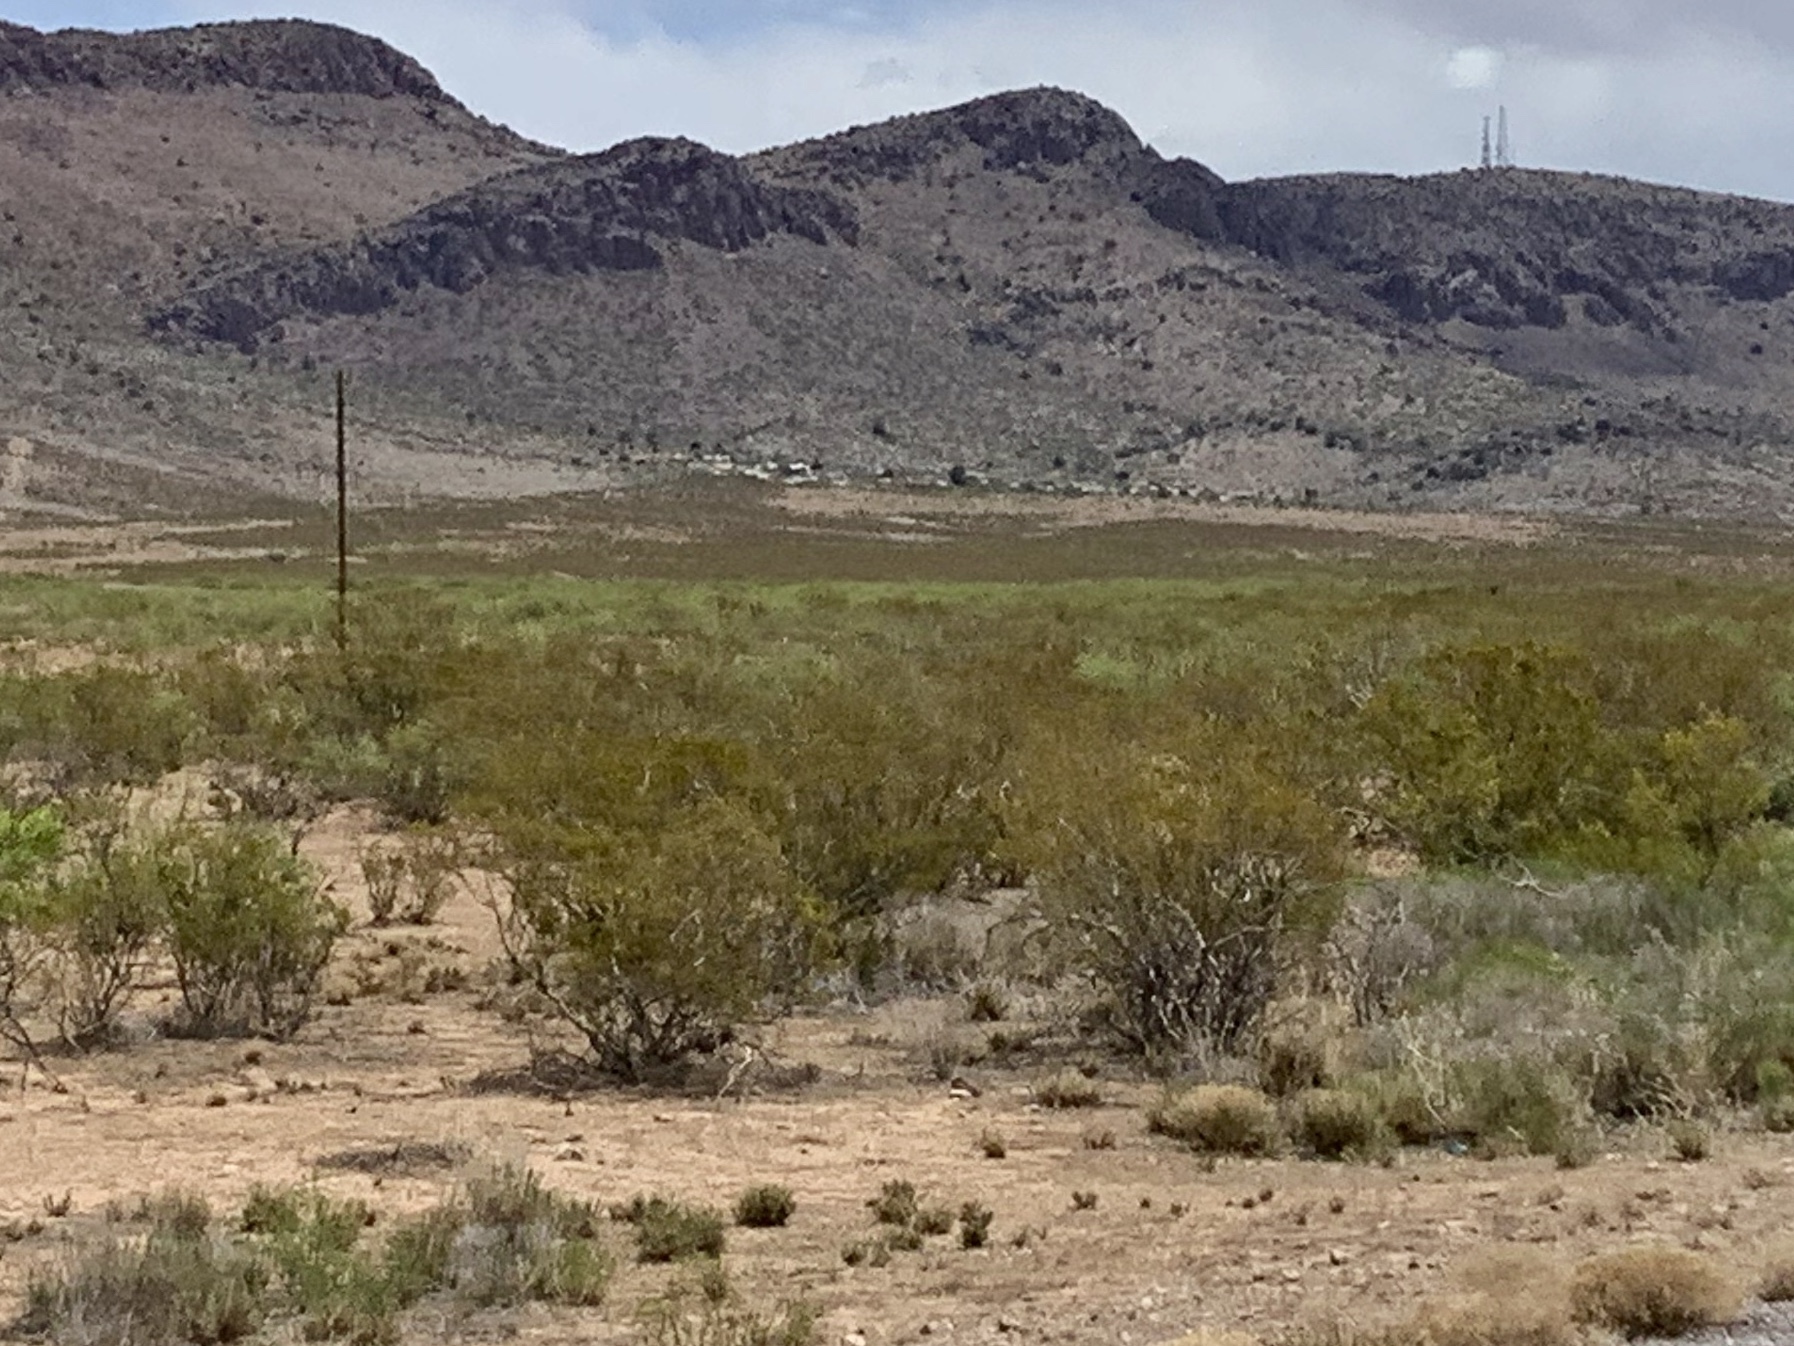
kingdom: Plantae
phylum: Tracheophyta
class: Magnoliopsida
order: Zygophyllales
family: Zygophyllaceae
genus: Larrea
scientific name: Larrea tridentata
